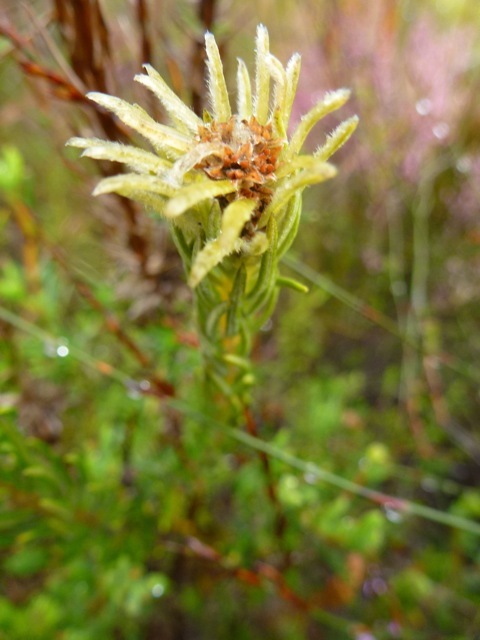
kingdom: Plantae
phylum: Tracheophyta
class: Magnoliopsida
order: Rosales
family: Rhamnaceae
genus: Phylica
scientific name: Phylica velutina
